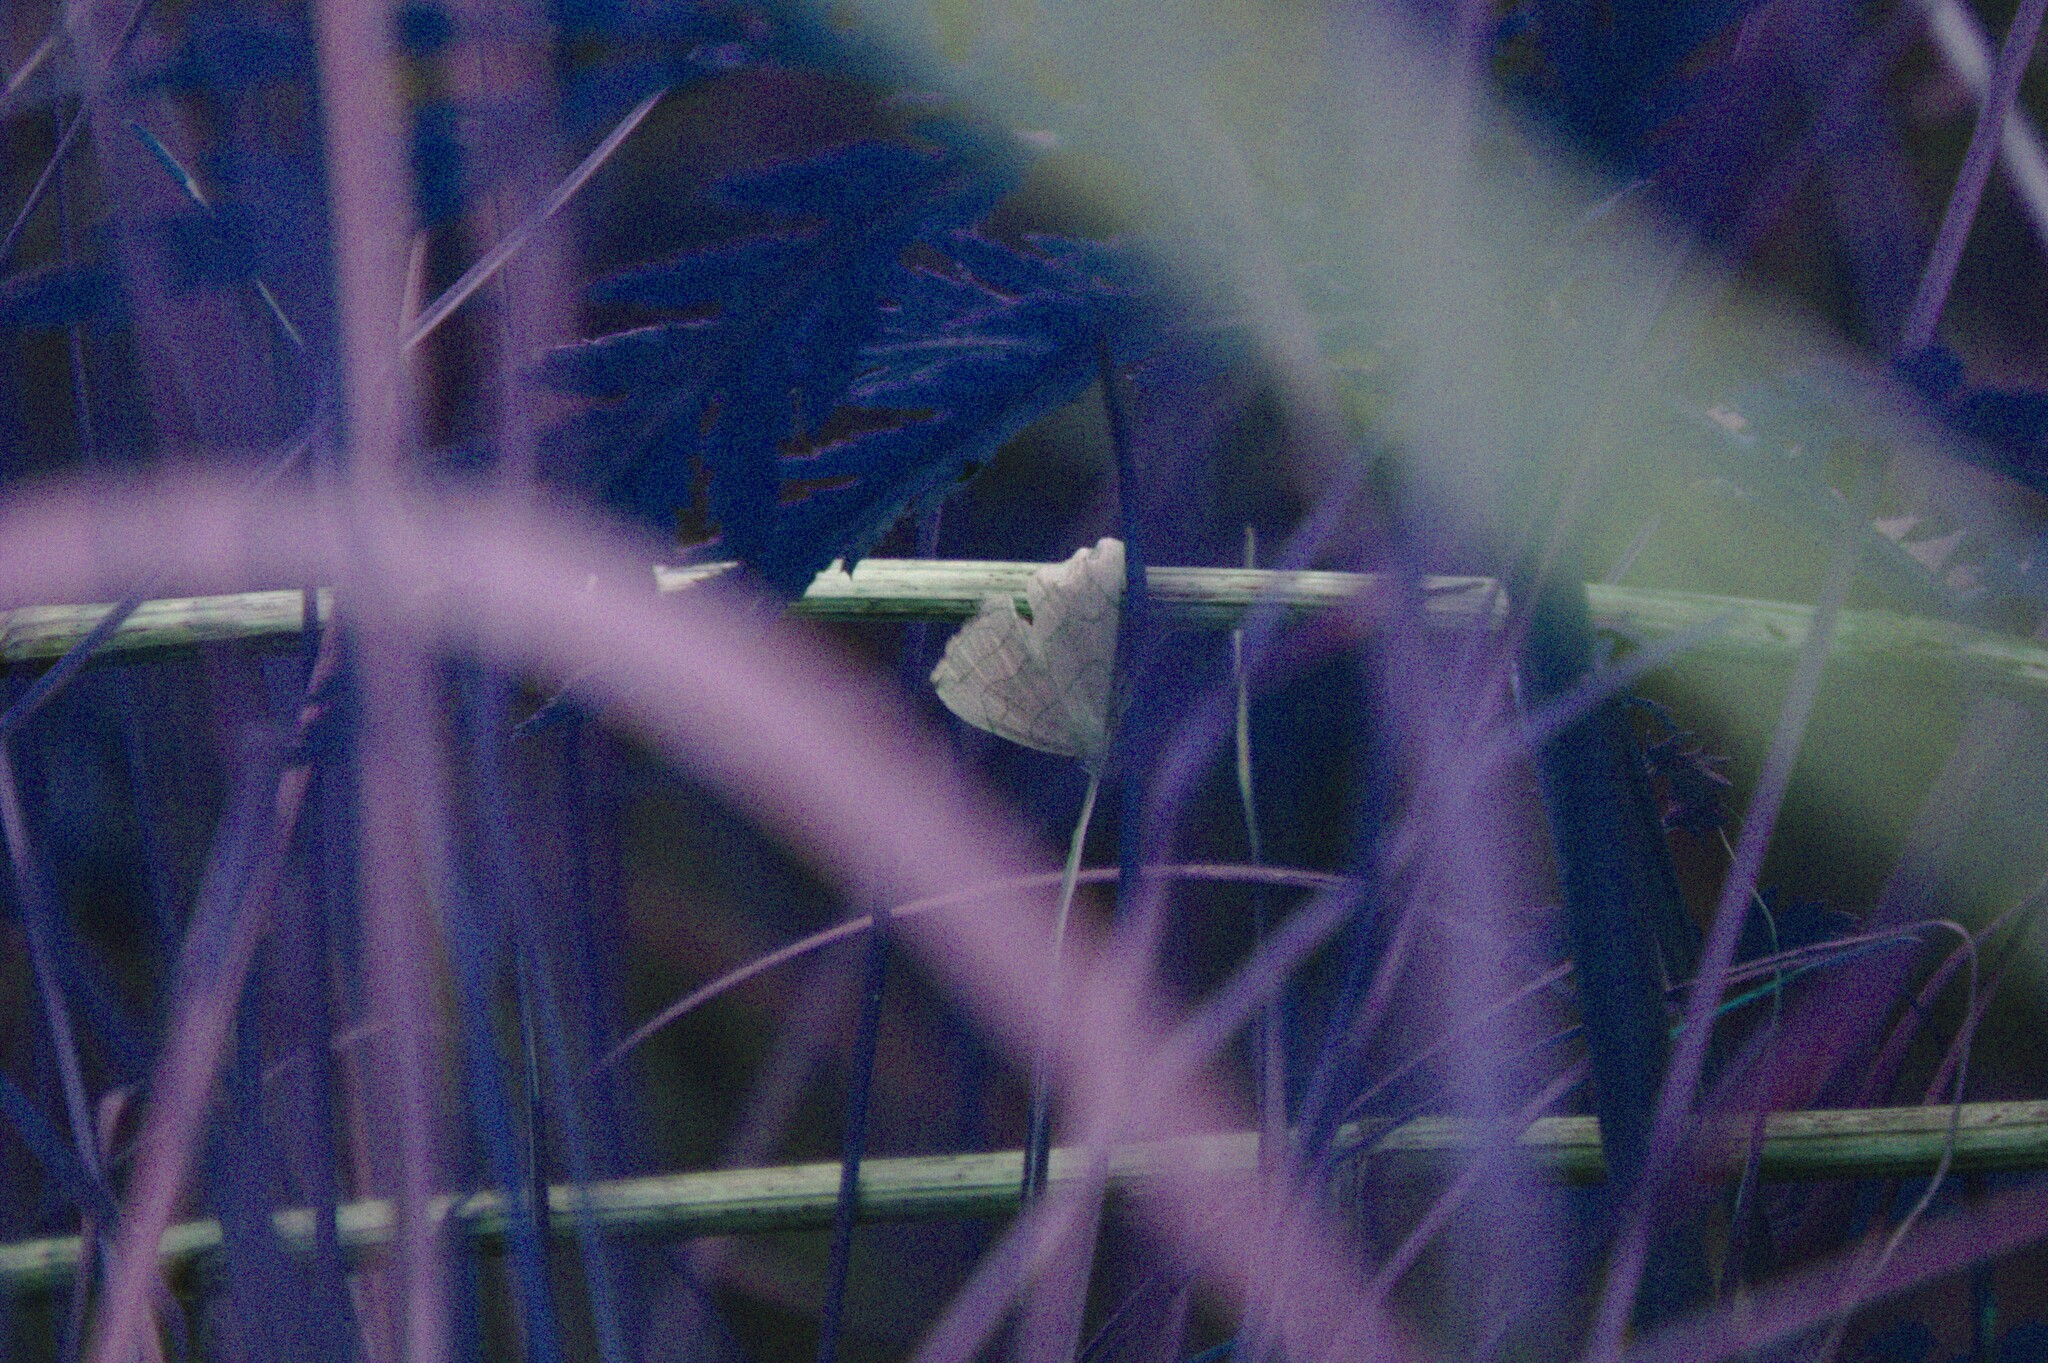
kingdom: Animalia
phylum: Arthropoda
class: Insecta
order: Lepidoptera
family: Erebidae
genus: Zanclognatha
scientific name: Zanclognatha pedipilalis
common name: Grayish fan-foot
